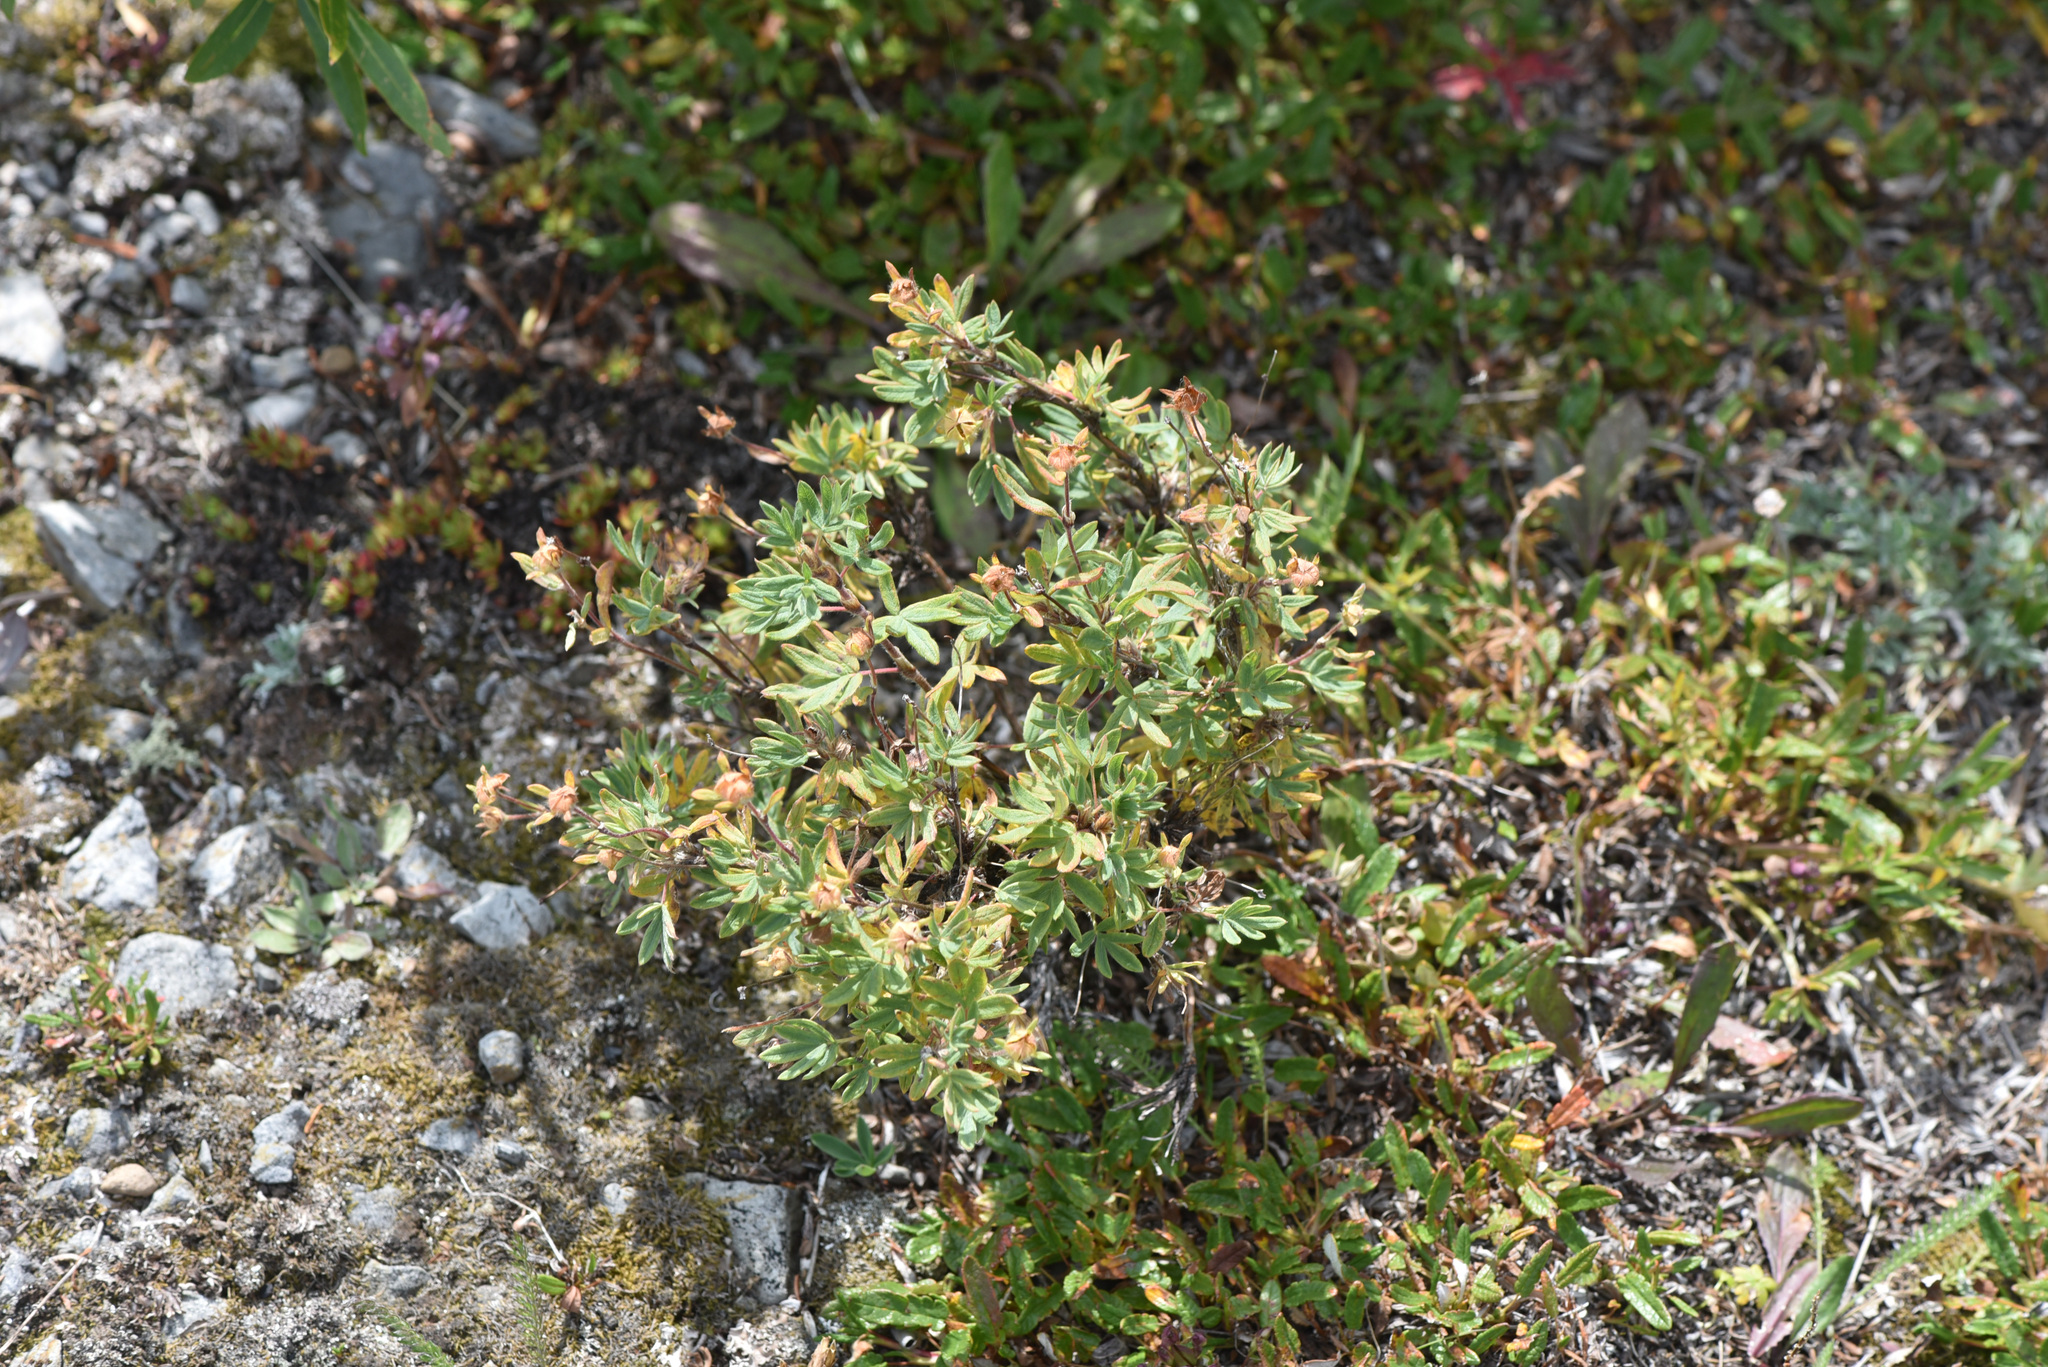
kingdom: Plantae
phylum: Tracheophyta
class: Magnoliopsida
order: Rosales
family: Rosaceae
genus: Dasiphora
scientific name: Dasiphora fruticosa
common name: Shrubby cinquefoil
